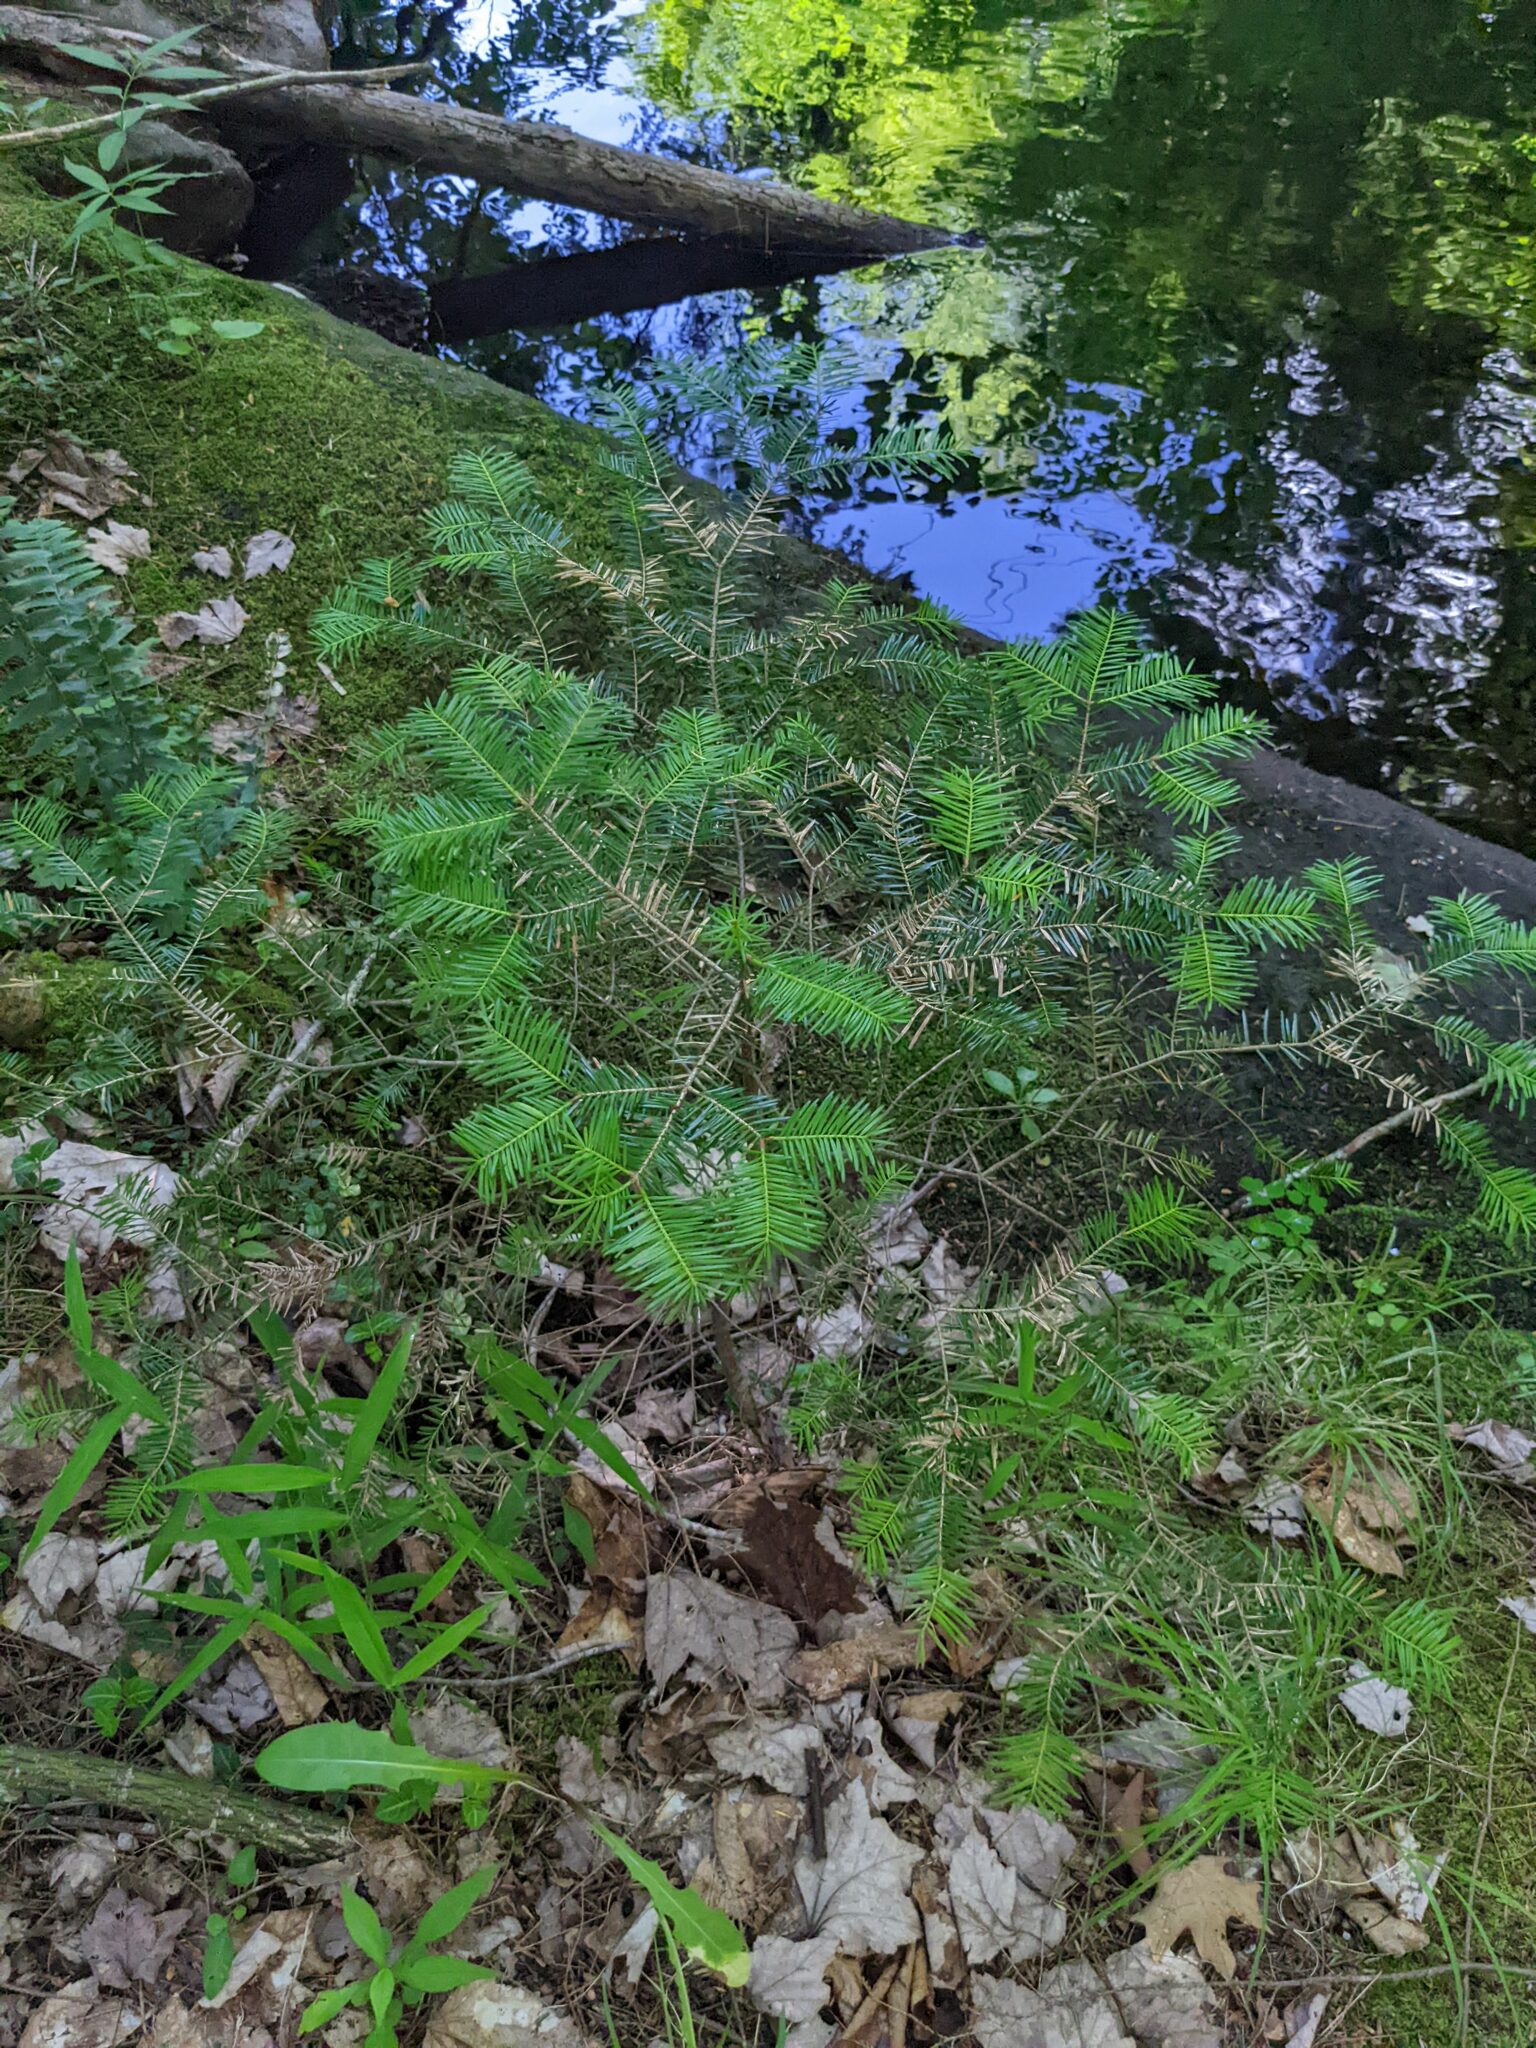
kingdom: Plantae
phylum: Tracheophyta
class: Pinopsida
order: Pinales
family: Pinaceae
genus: Abies
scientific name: Abies balsamea
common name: Balsam fir
